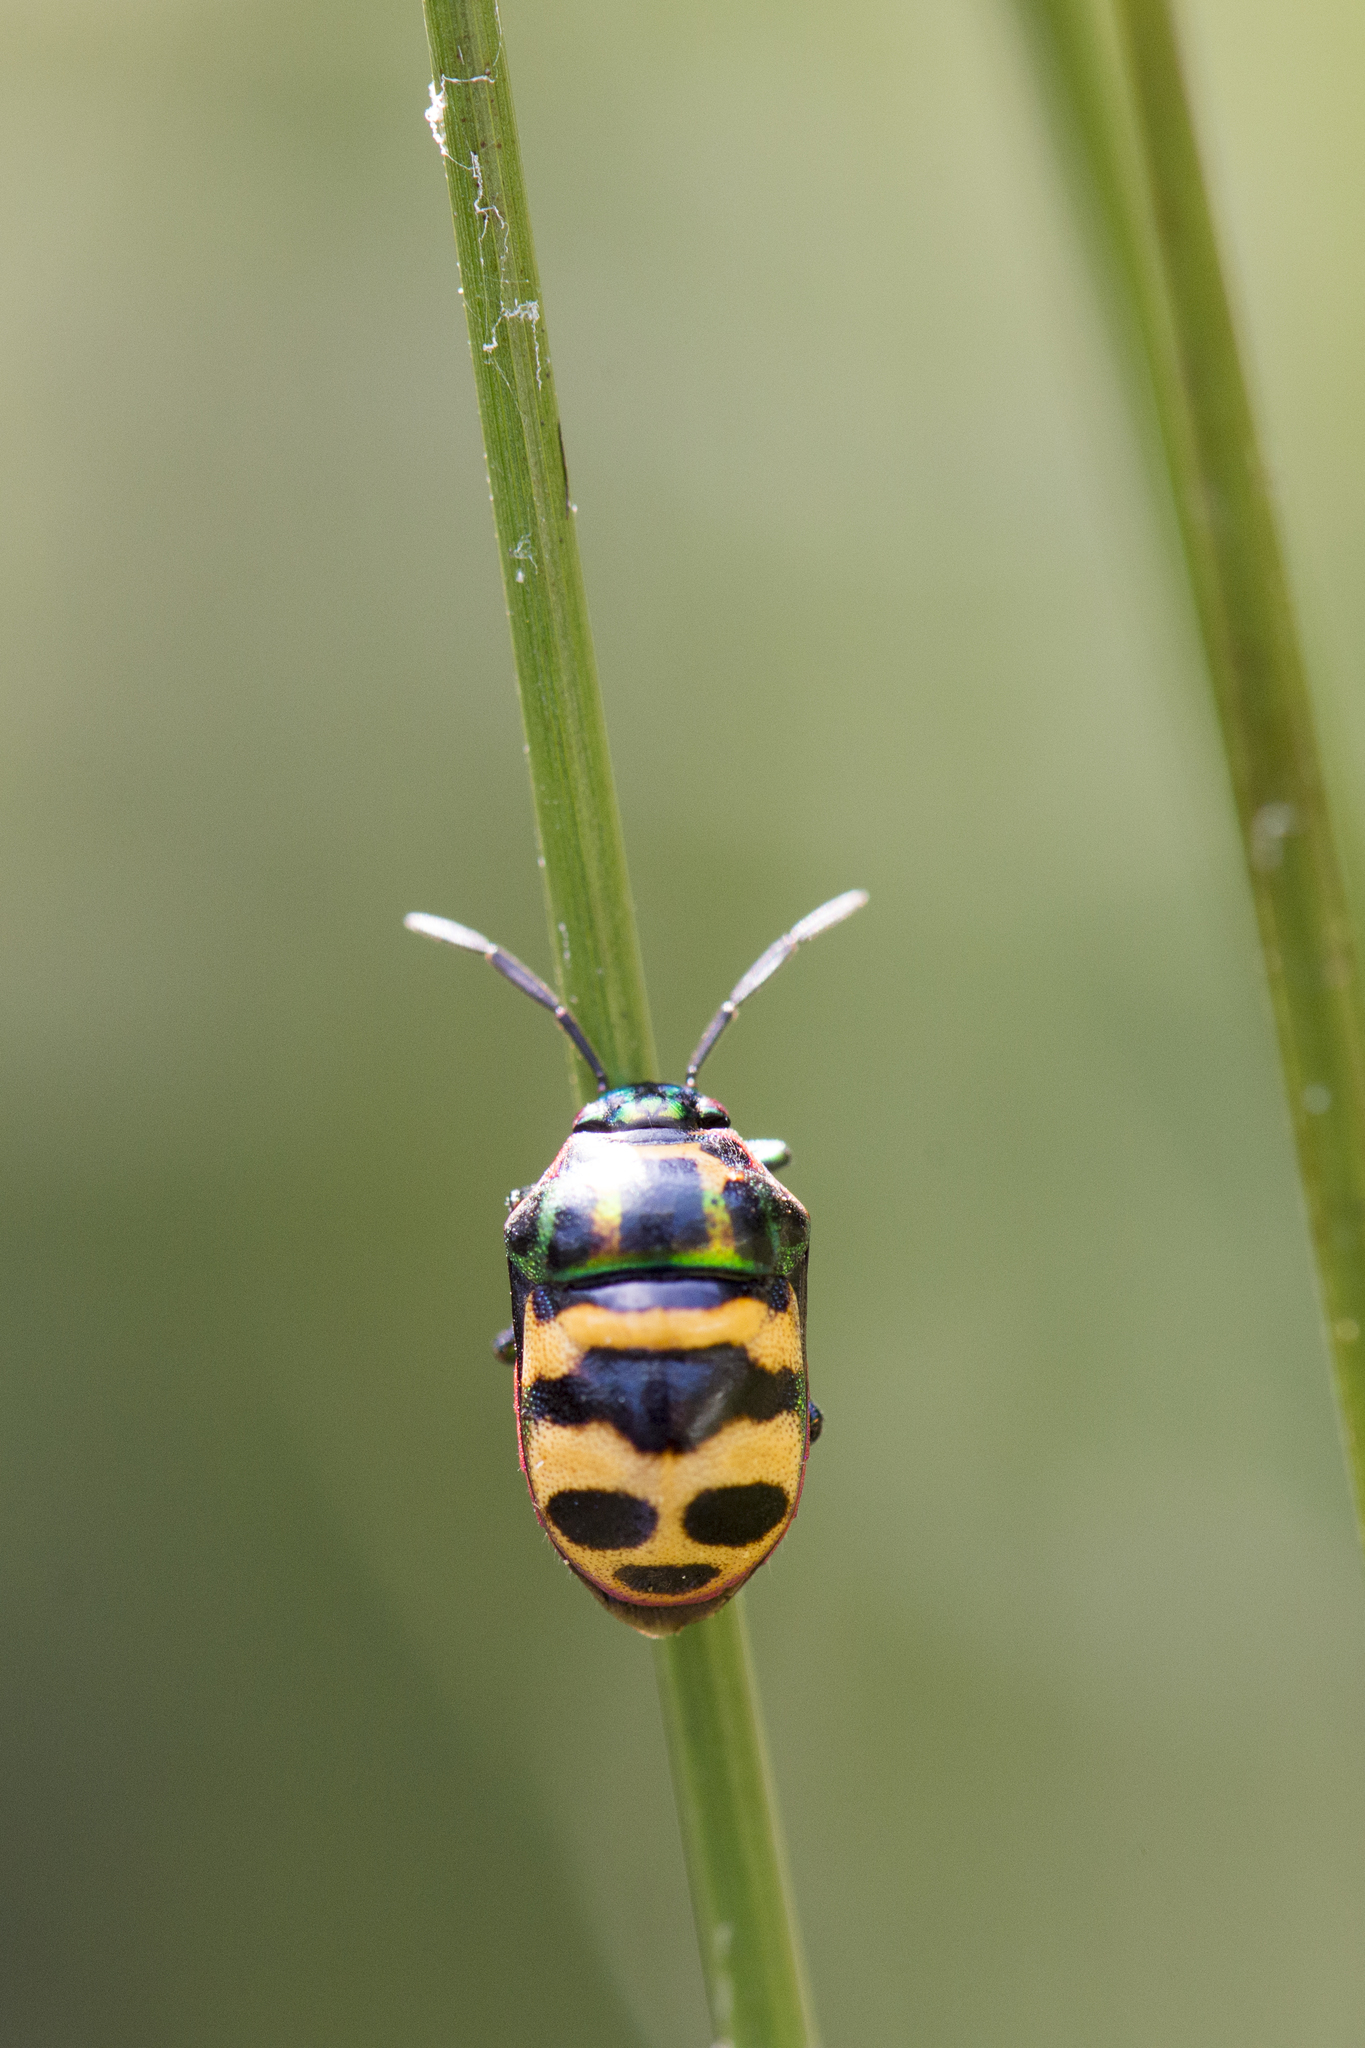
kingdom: Animalia
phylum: Arthropoda
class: Insecta
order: Hemiptera
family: Scutelleridae
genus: Chrysocoris
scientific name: Chrysocoris fascialis
